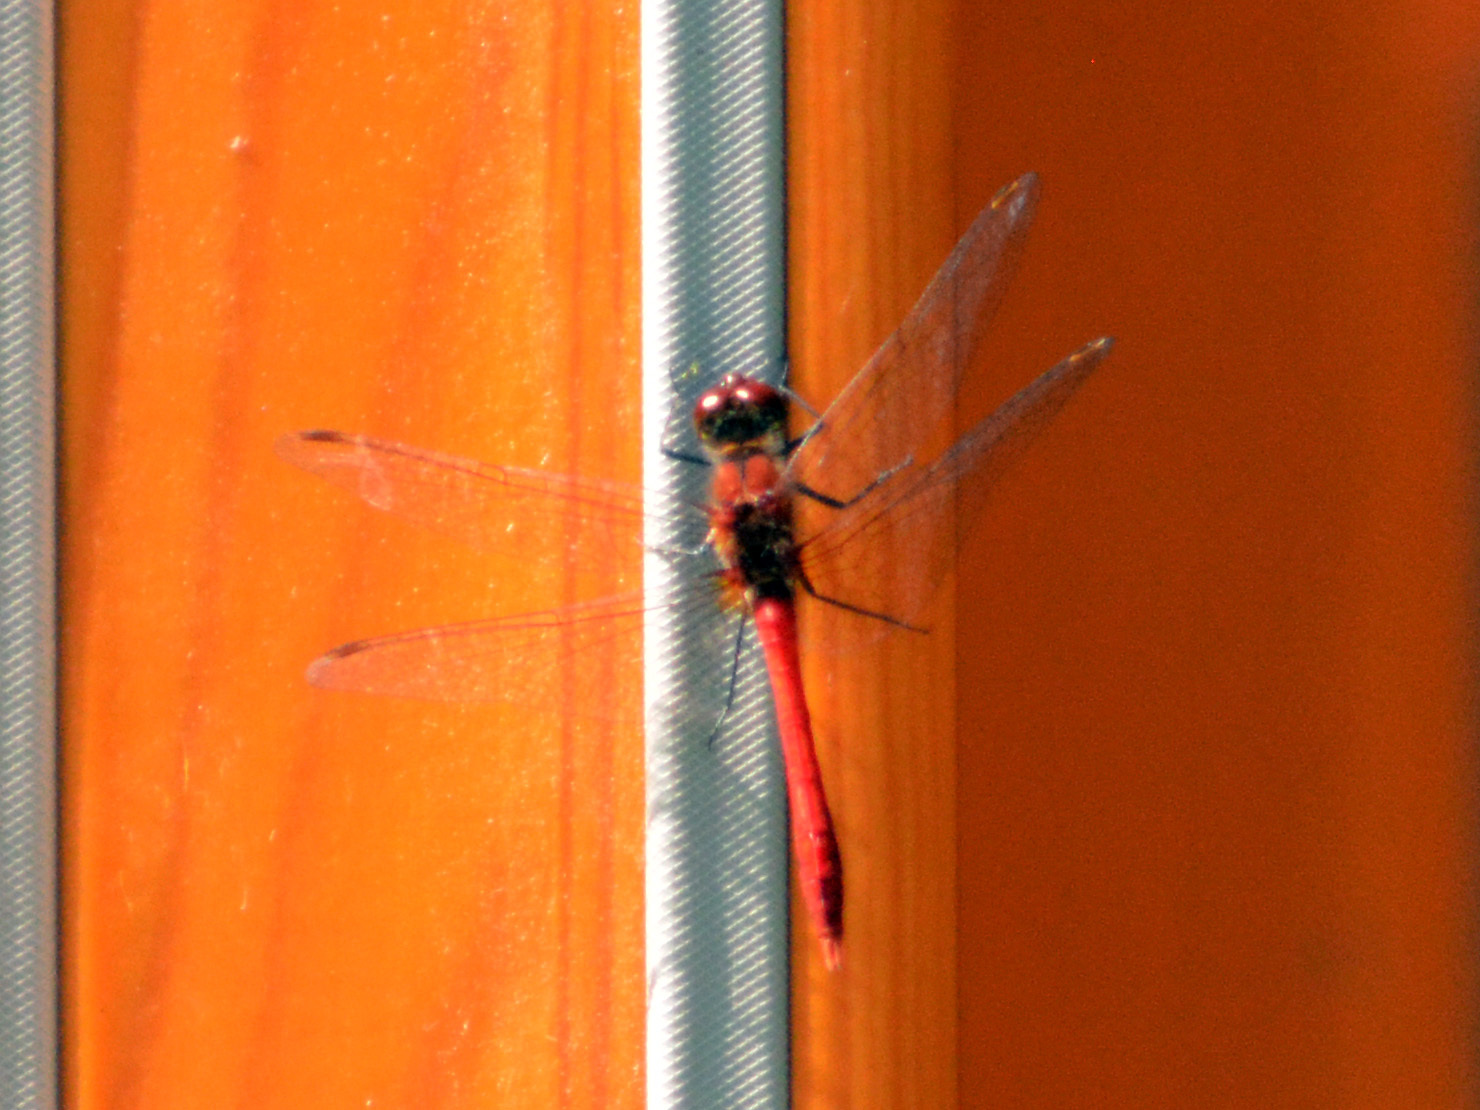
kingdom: Animalia
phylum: Arthropoda
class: Insecta
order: Odonata
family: Libellulidae
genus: Sympetrum
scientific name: Sympetrum sanguineum
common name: Ruddy darter
